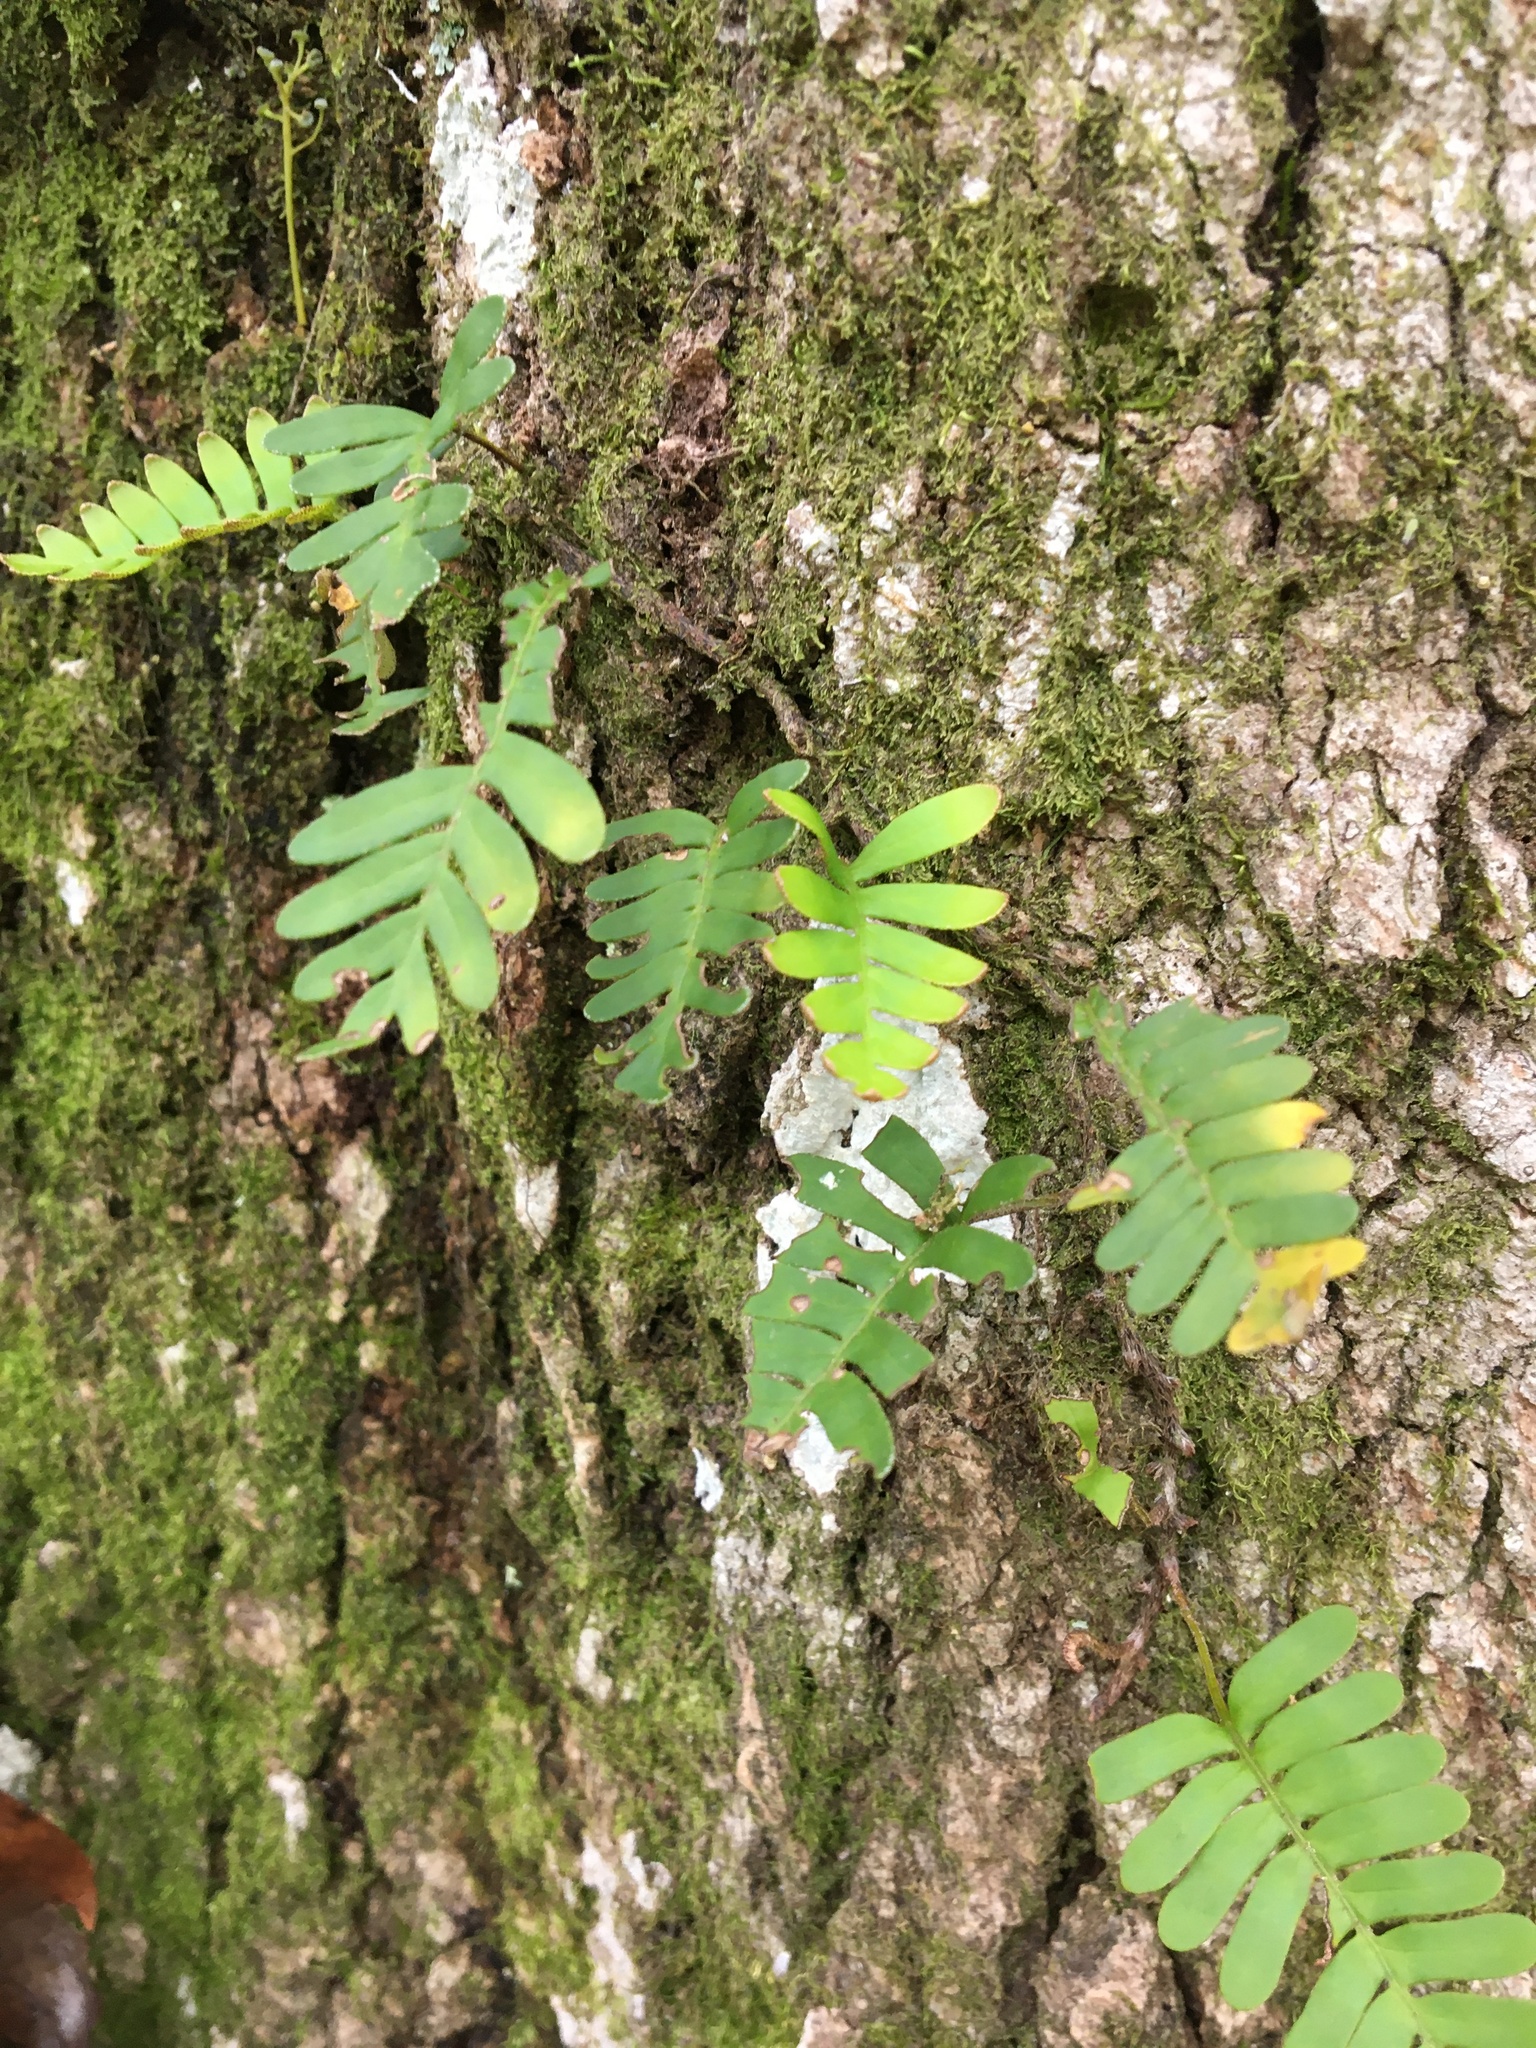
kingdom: Plantae
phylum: Tracheophyta
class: Polypodiopsida
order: Polypodiales
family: Polypodiaceae
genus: Pleopeltis
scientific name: Pleopeltis michauxiana
